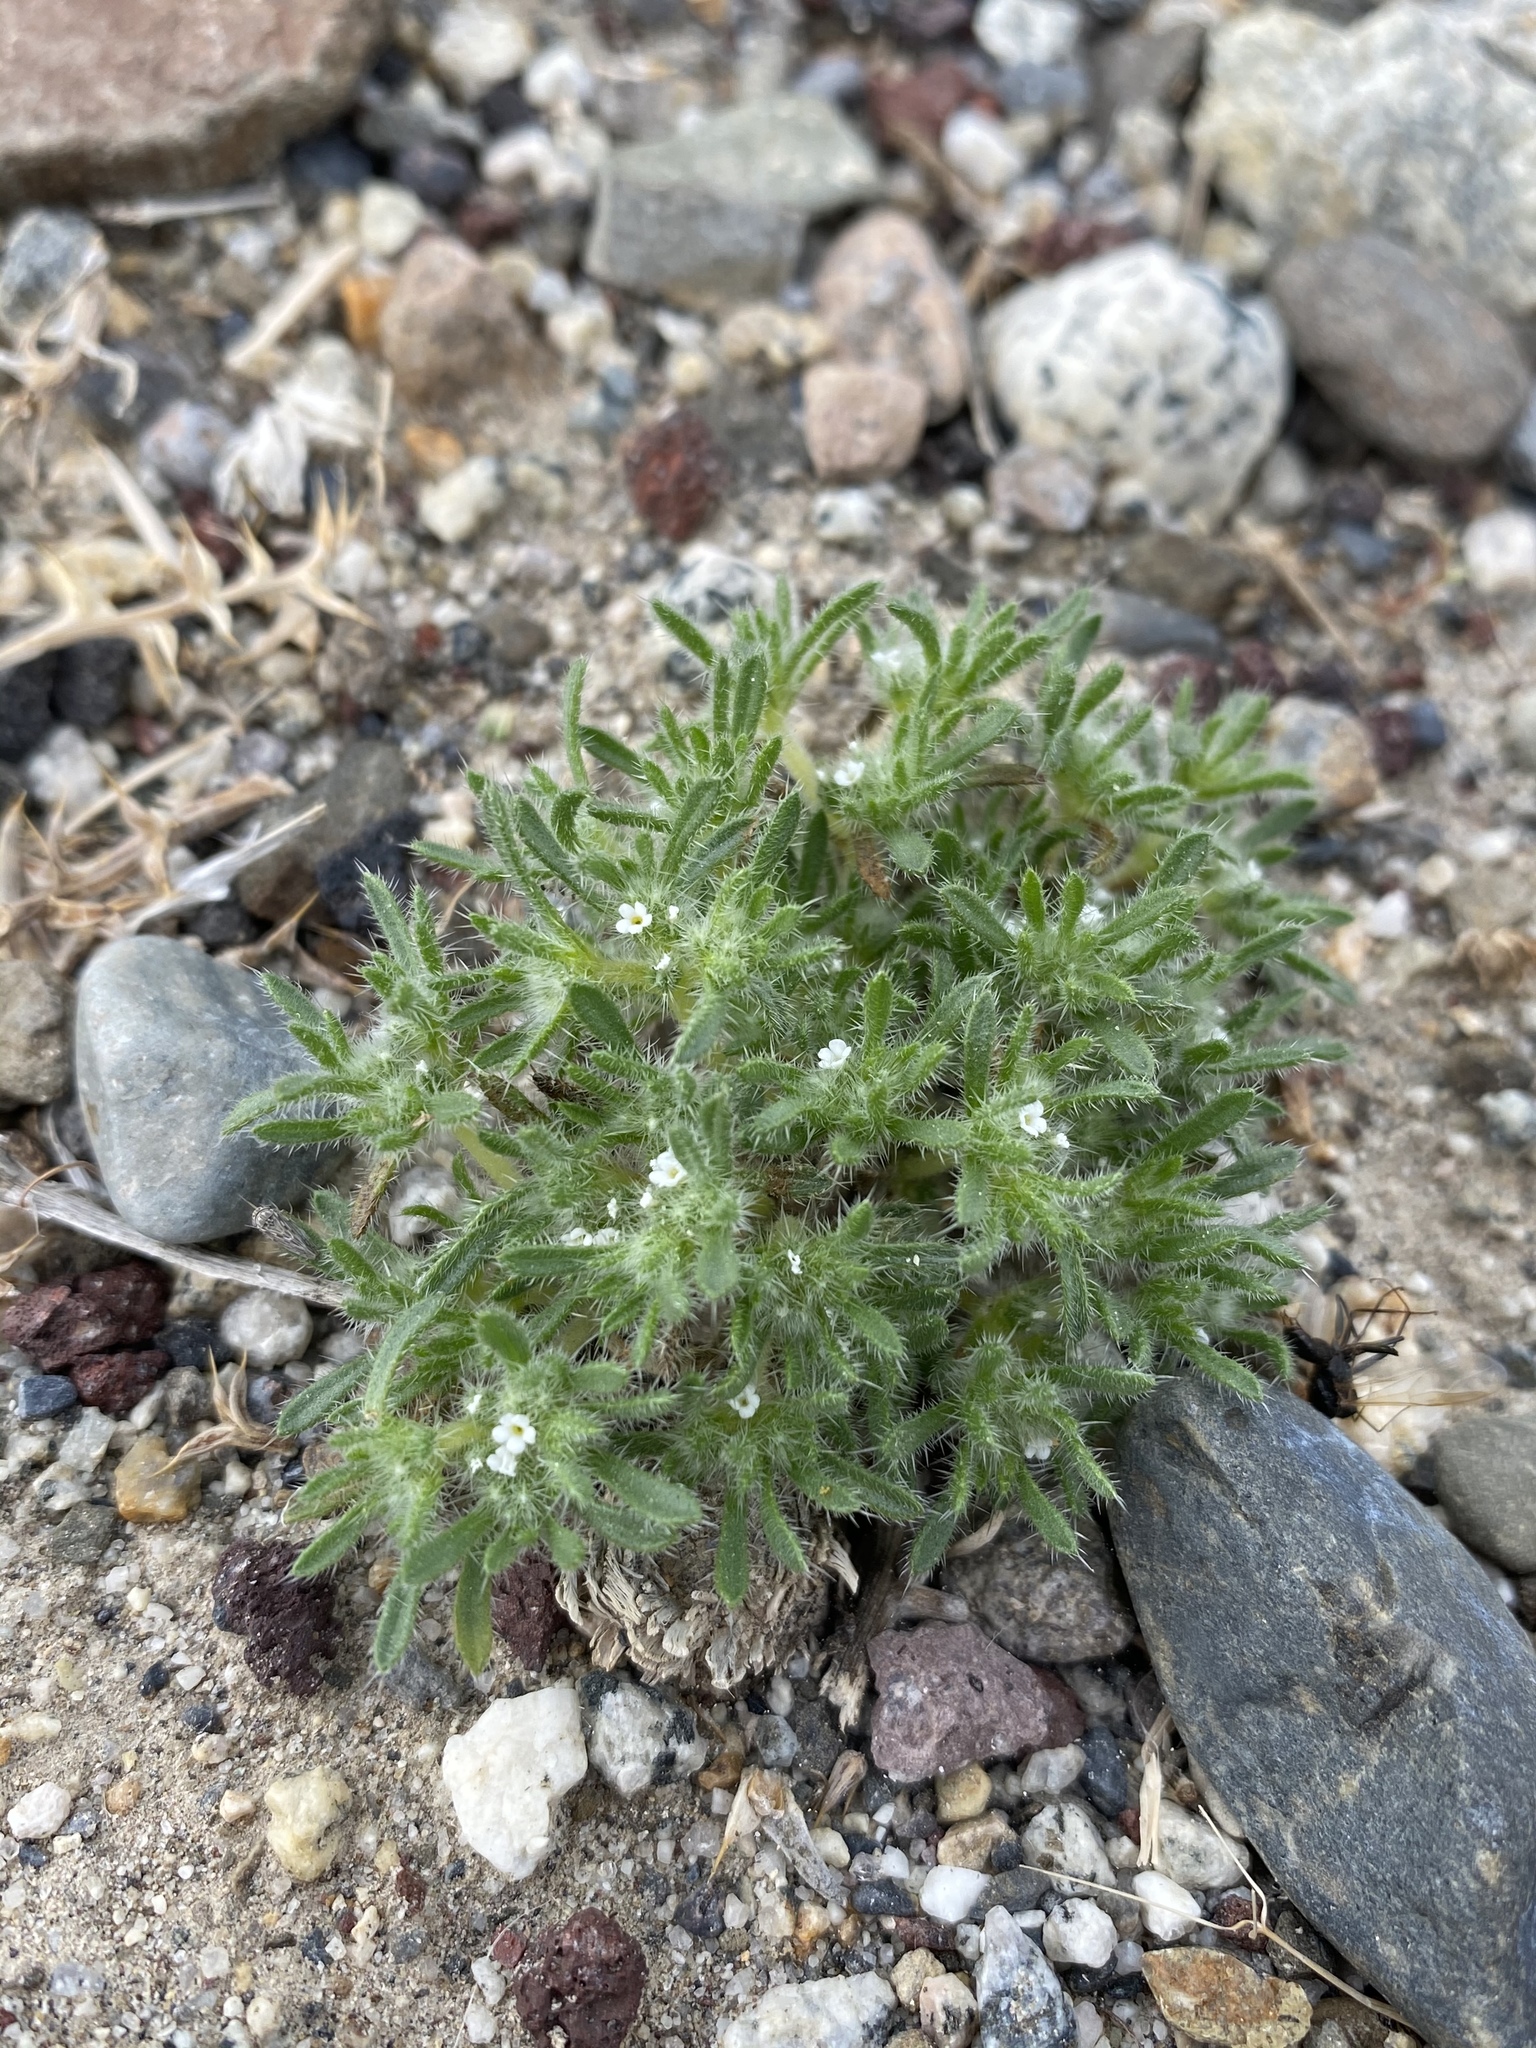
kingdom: Plantae
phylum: Tracheophyta
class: Magnoliopsida
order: Boraginales
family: Boraginaceae
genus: Greeneocharis
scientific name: Greeneocharis circumscissa
